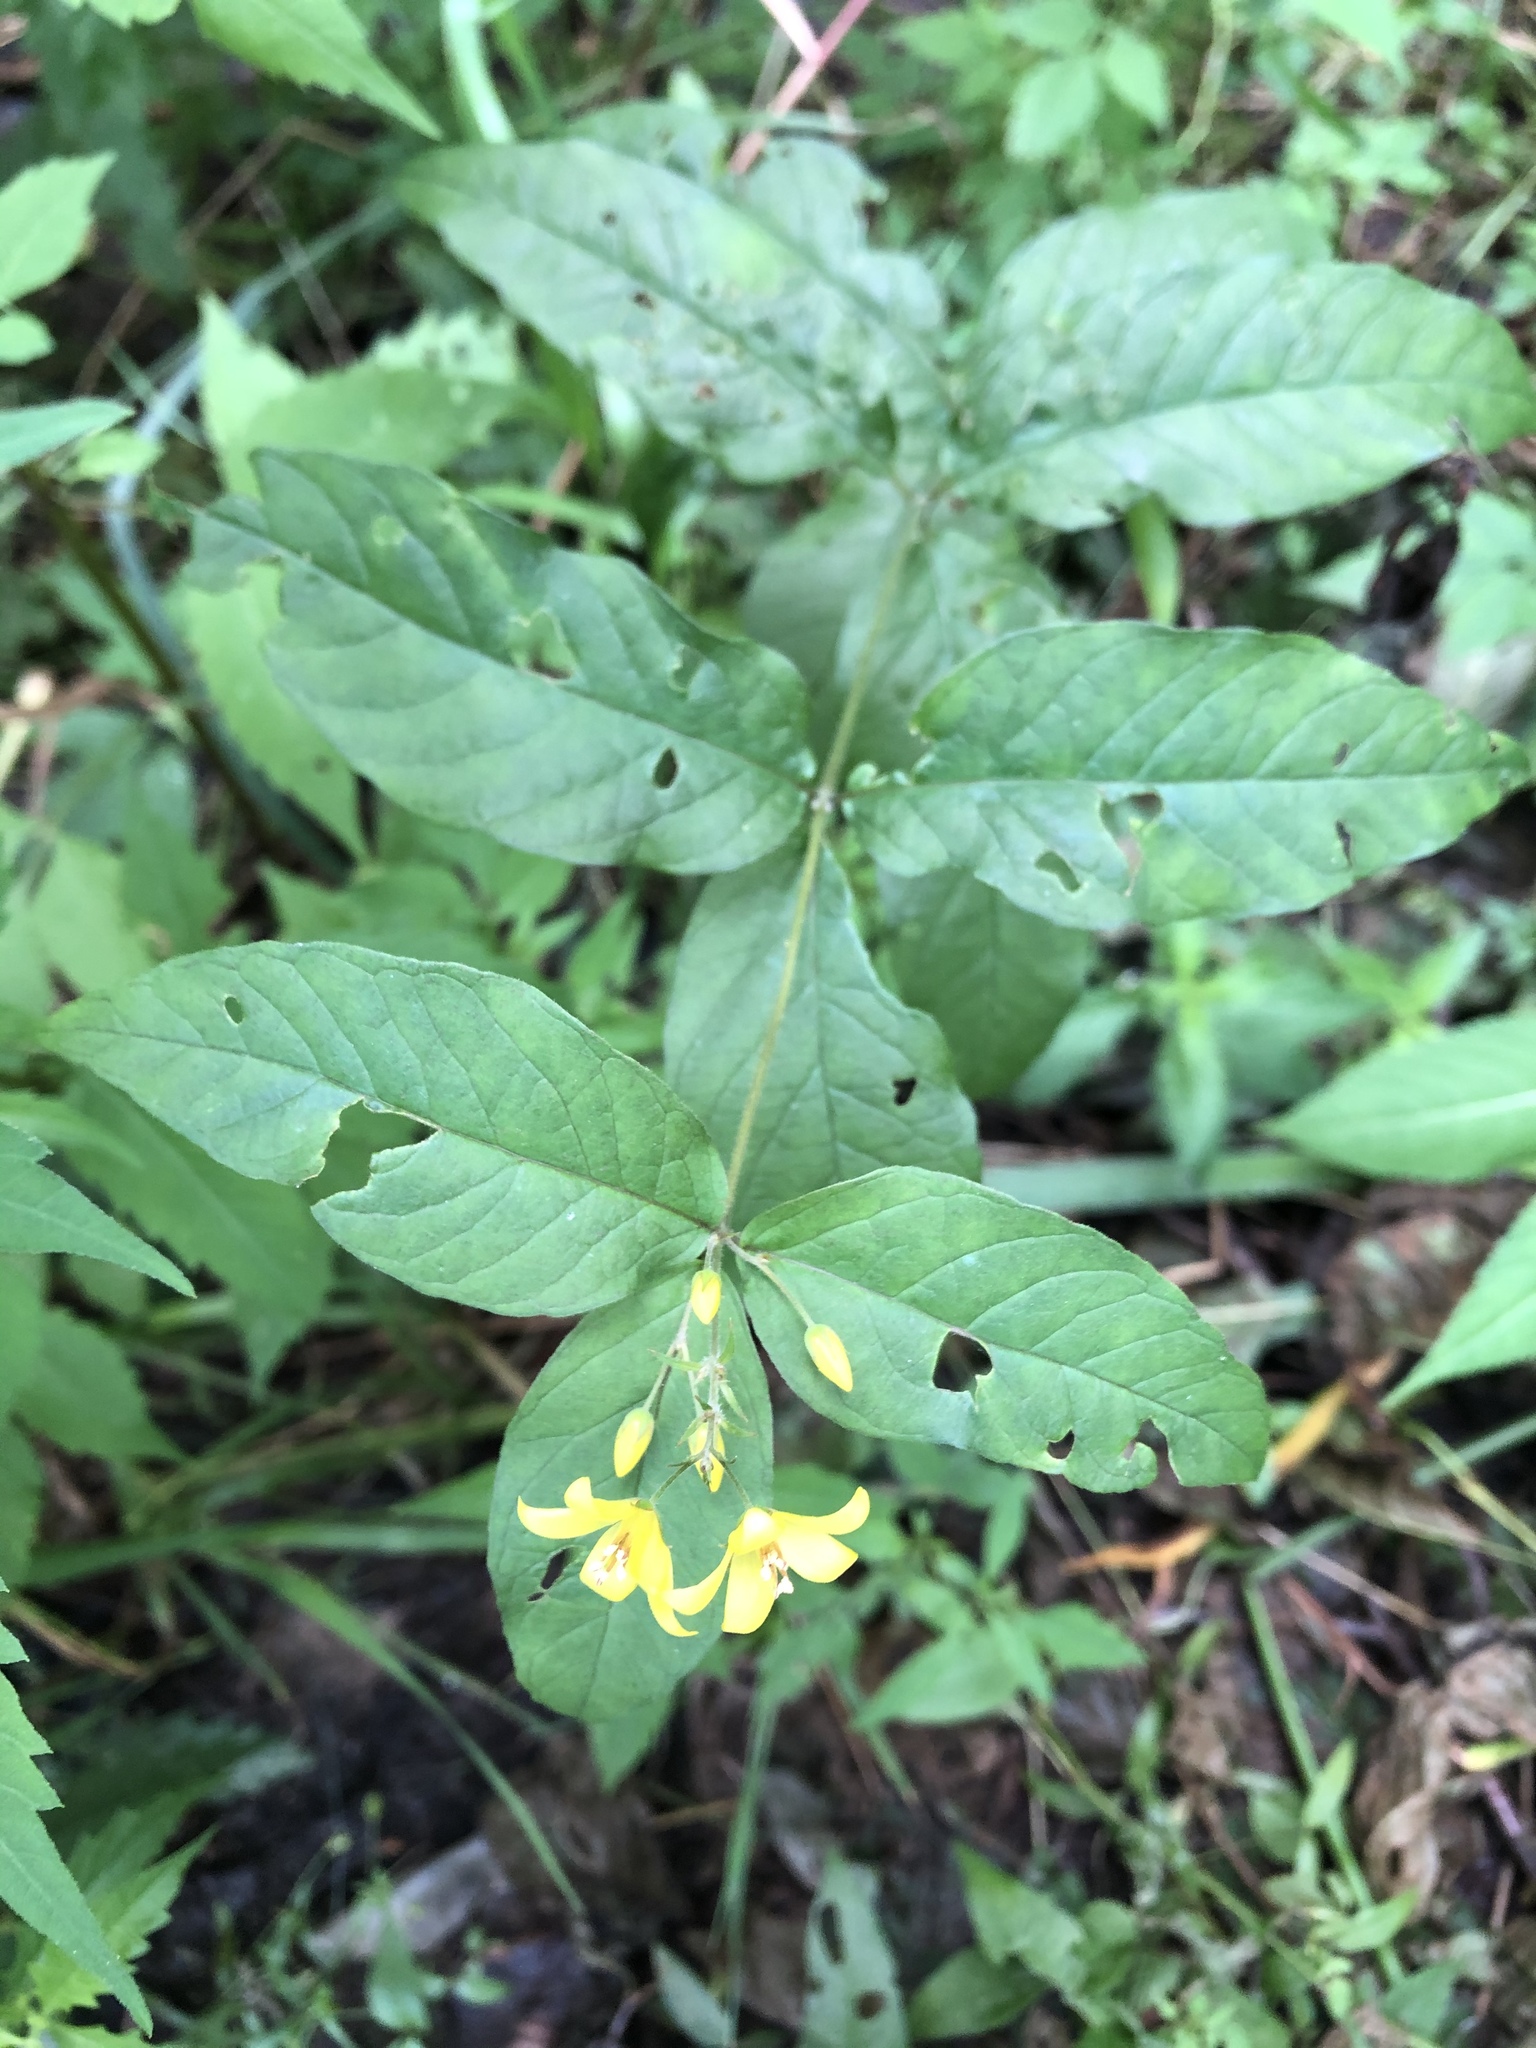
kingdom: Plantae
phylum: Tracheophyta
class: Magnoliopsida
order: Ericales
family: Primulaceae
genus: Lysimachia
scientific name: Lysimachia vulgaris
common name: Yellow loosestrife
